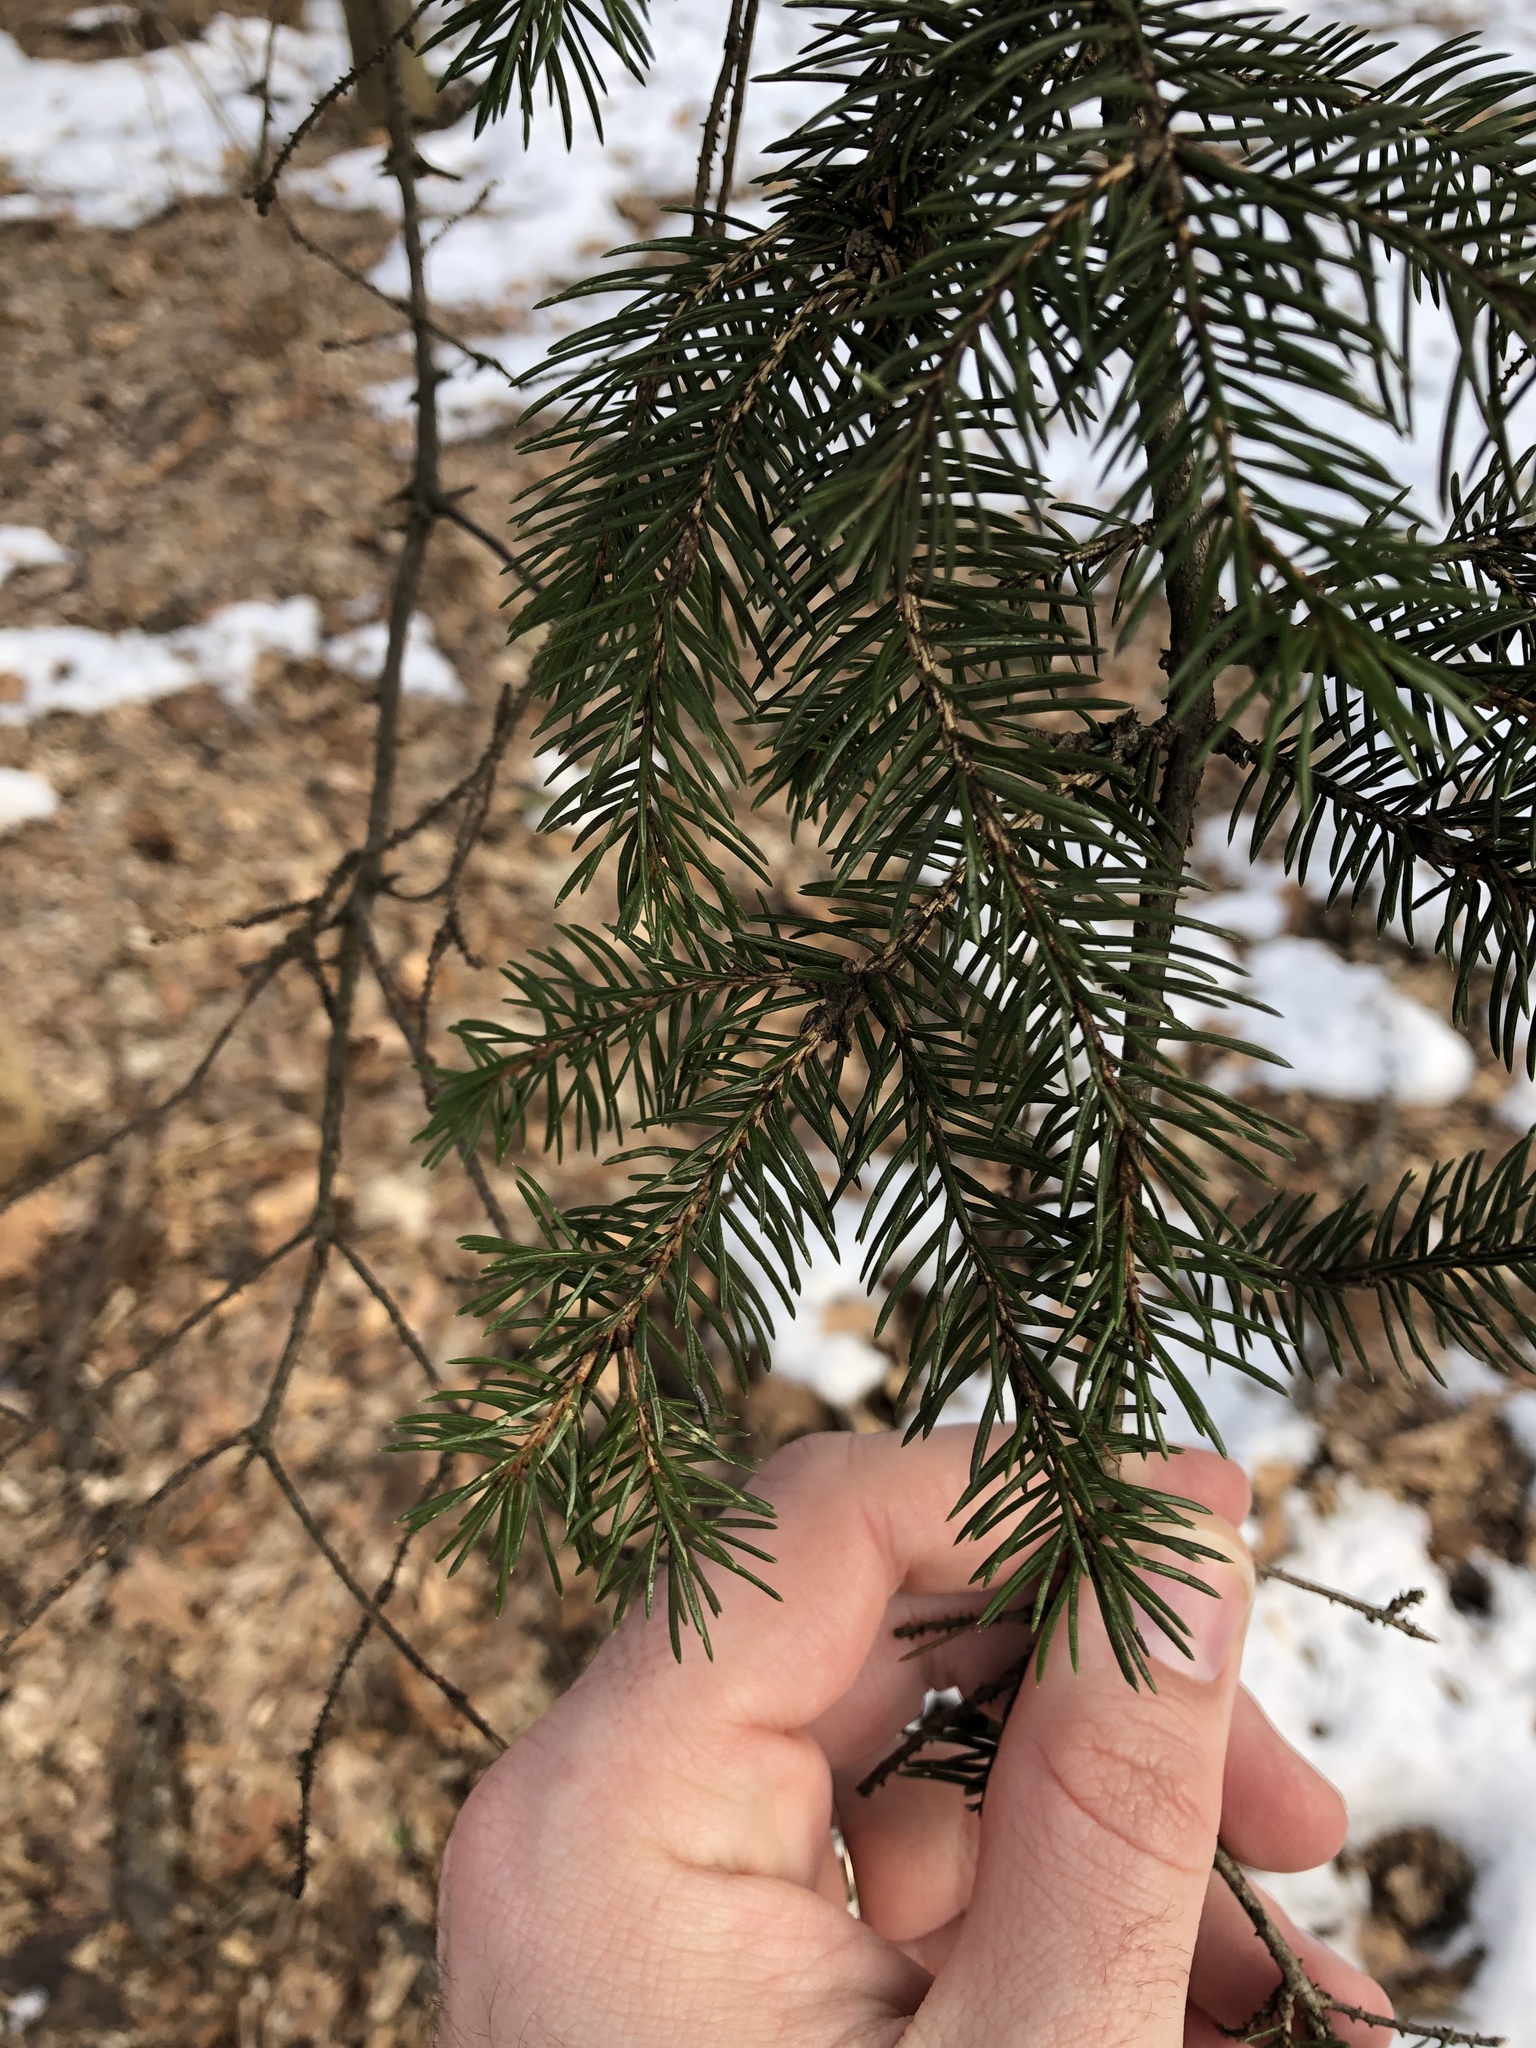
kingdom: Plantae
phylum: Tracheophyta
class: Pinopsida
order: Pinales
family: Pinaceae
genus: Picea
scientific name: Picea abies
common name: Norway spruce
